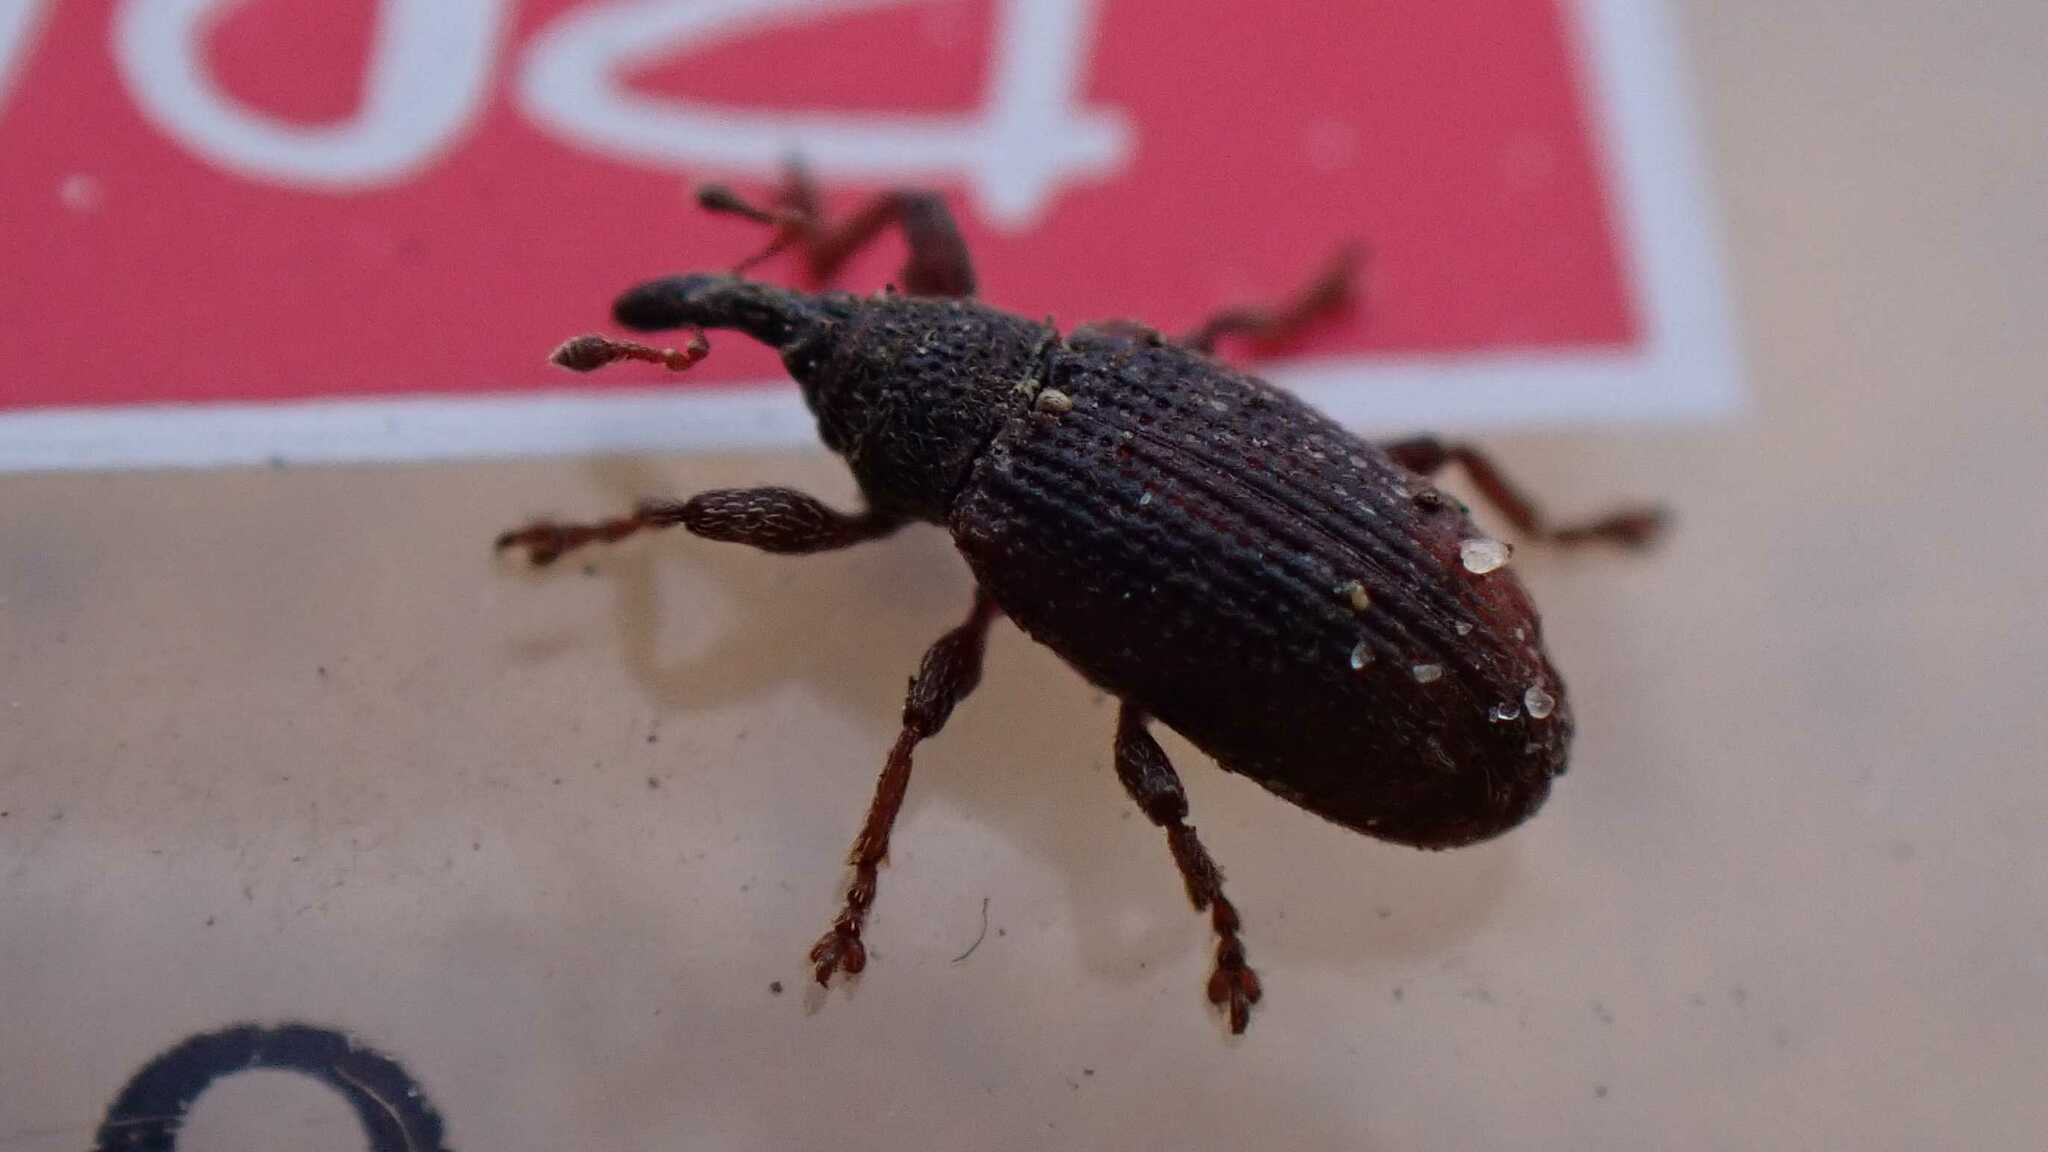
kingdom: Animalia
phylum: Arthropoda
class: Insecta
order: Coleoptera
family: Curculionidae
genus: Bradybatus
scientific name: Bradybatus kellneri
